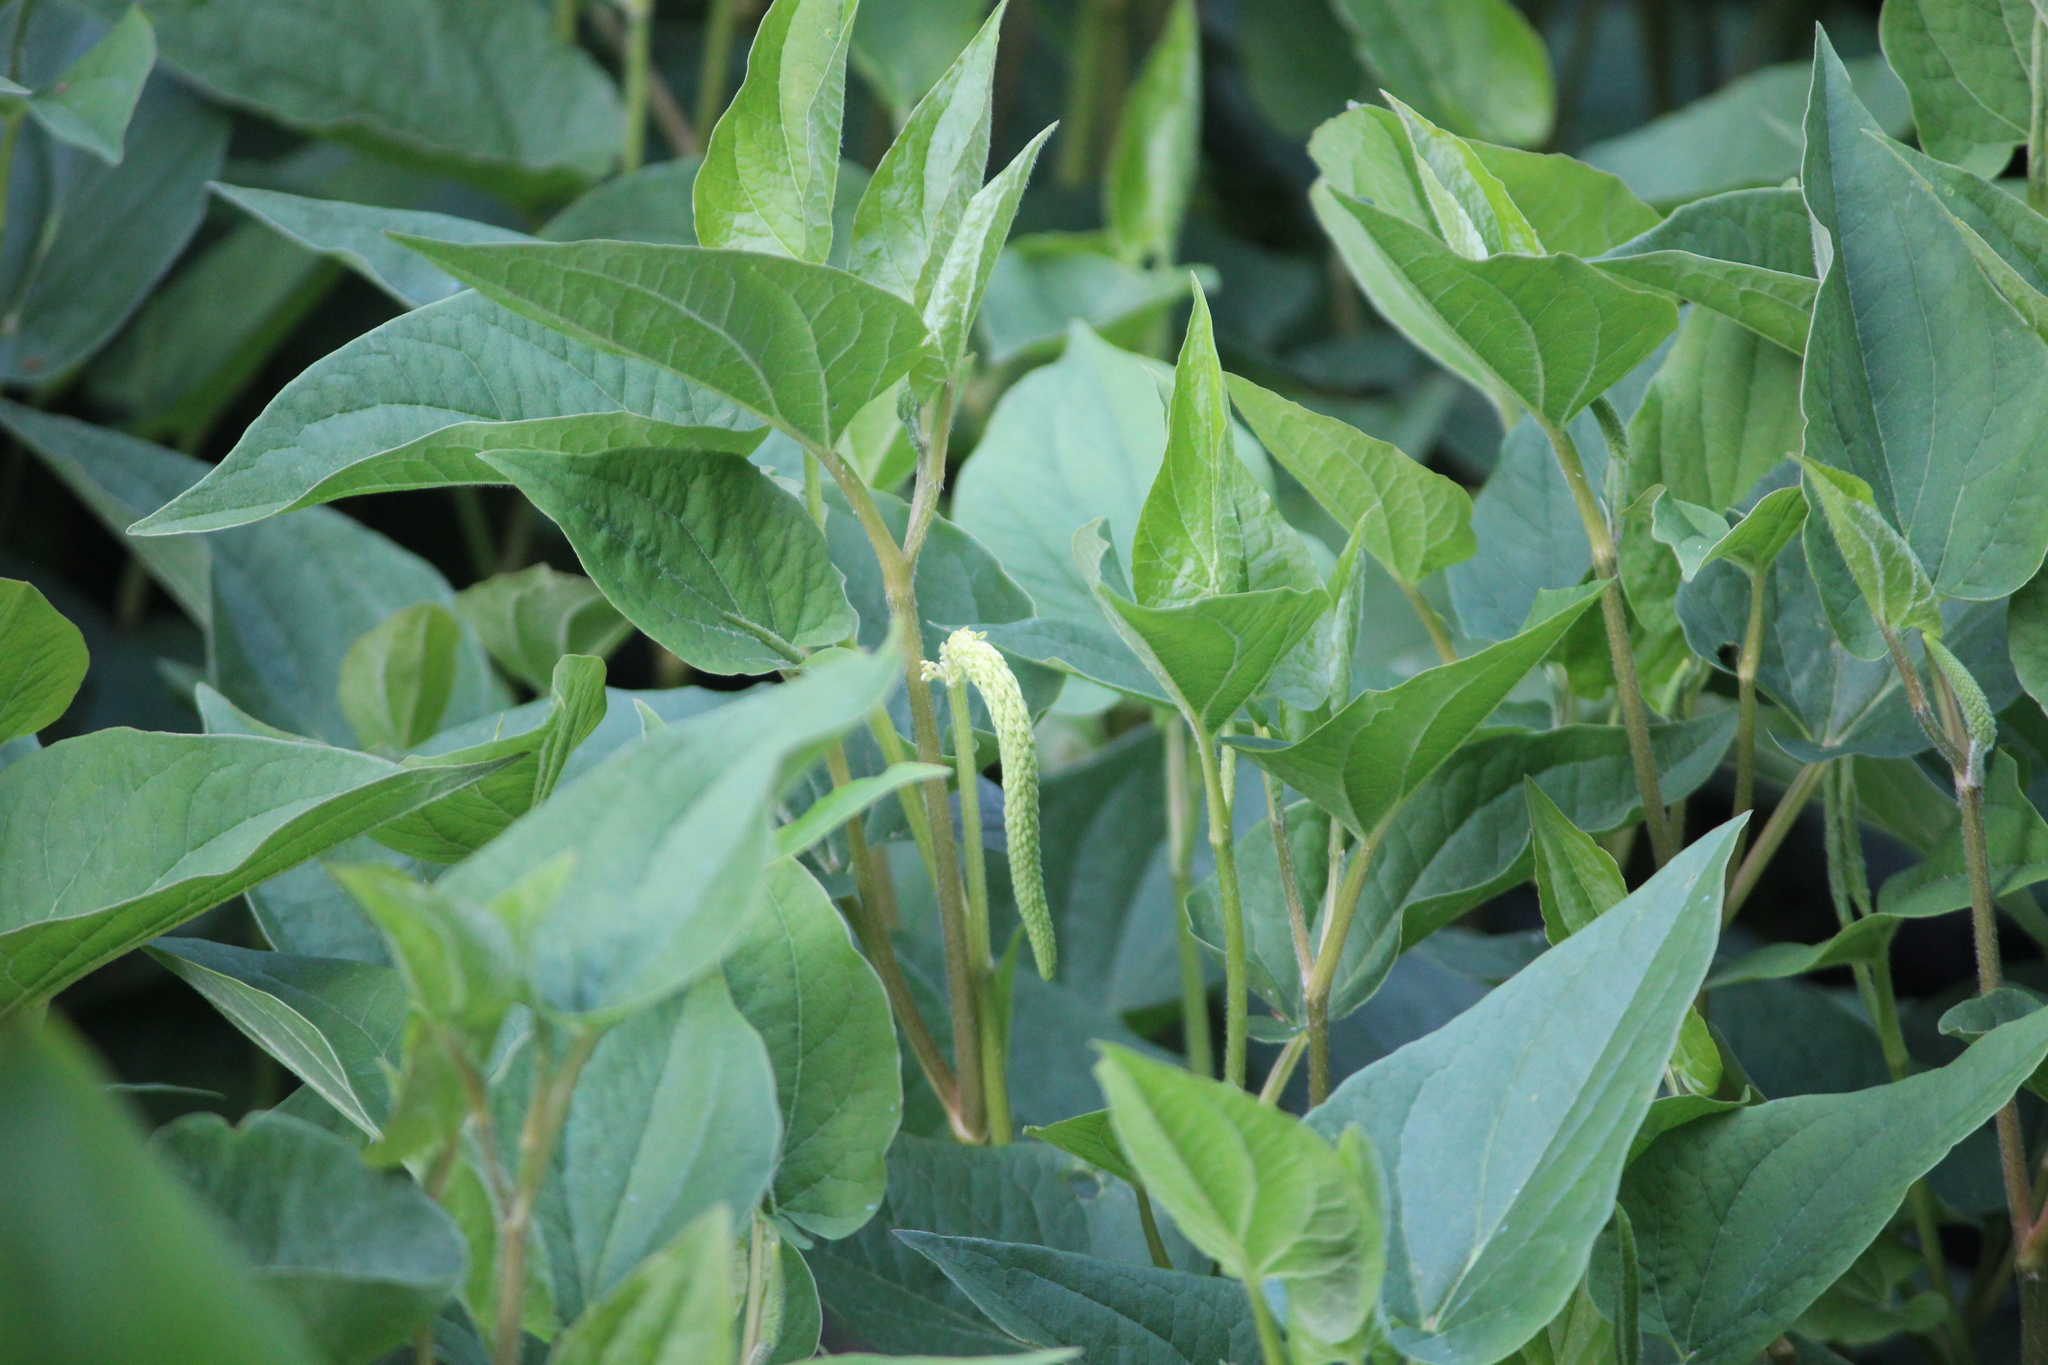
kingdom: Plantae
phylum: Tracheophyta
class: Magnoliopsida
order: Piperales
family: Saururaceae
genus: Saururus
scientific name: Saururus cernuus
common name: Lizard's-tail
